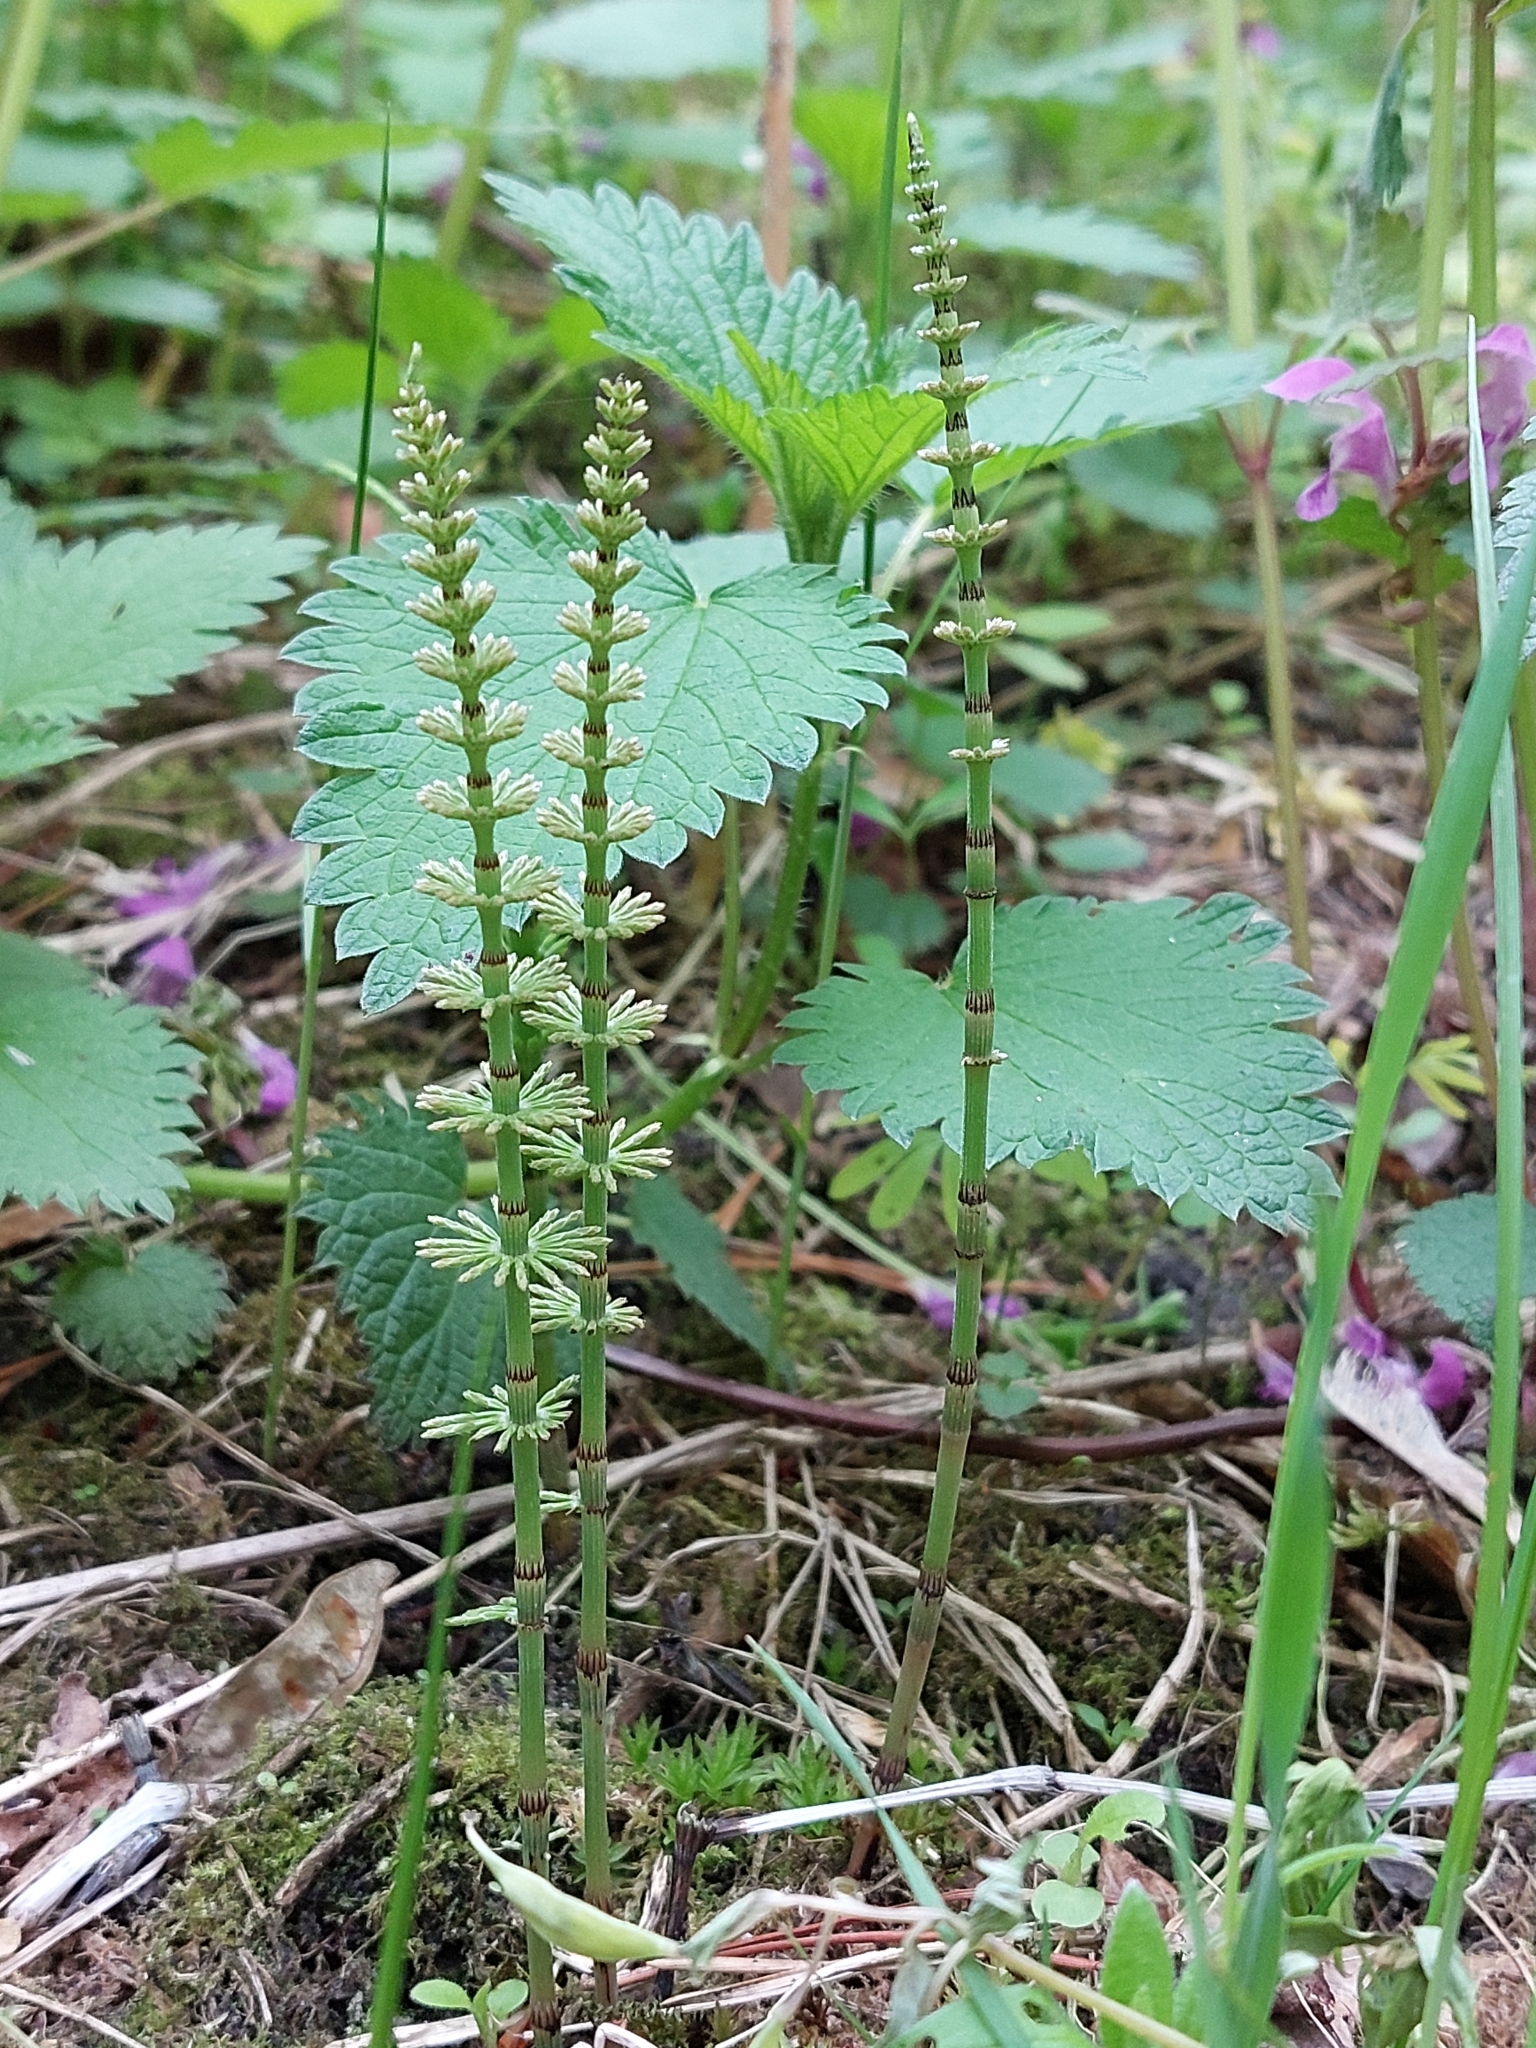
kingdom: Plantae
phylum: Tracheophyta
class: Polypodiopsida
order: Equisetales
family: Equisetaceae
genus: Equisetum
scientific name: Equisetum pratense
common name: Meadow horsetail
